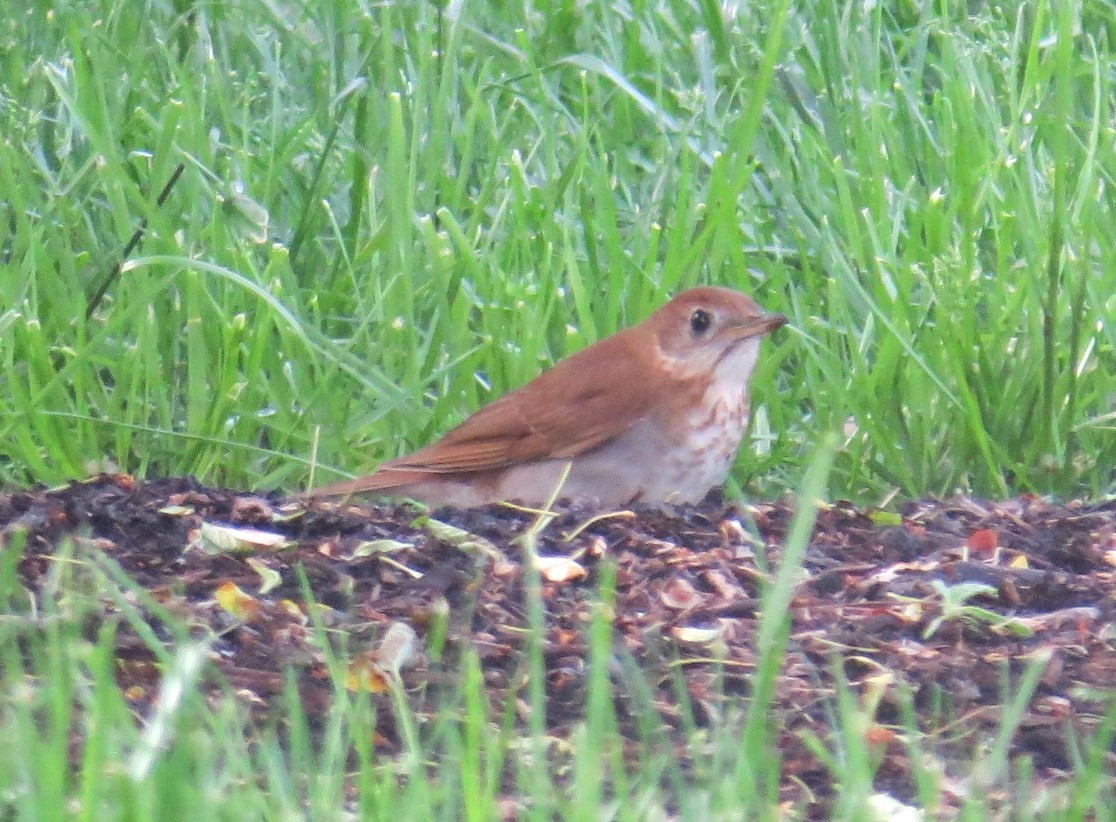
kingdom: Animalia
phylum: Chordata
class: Aves
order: Passeriformes
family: Turdidae
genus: Catharus
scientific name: Catharus fuscescens
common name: Veery
